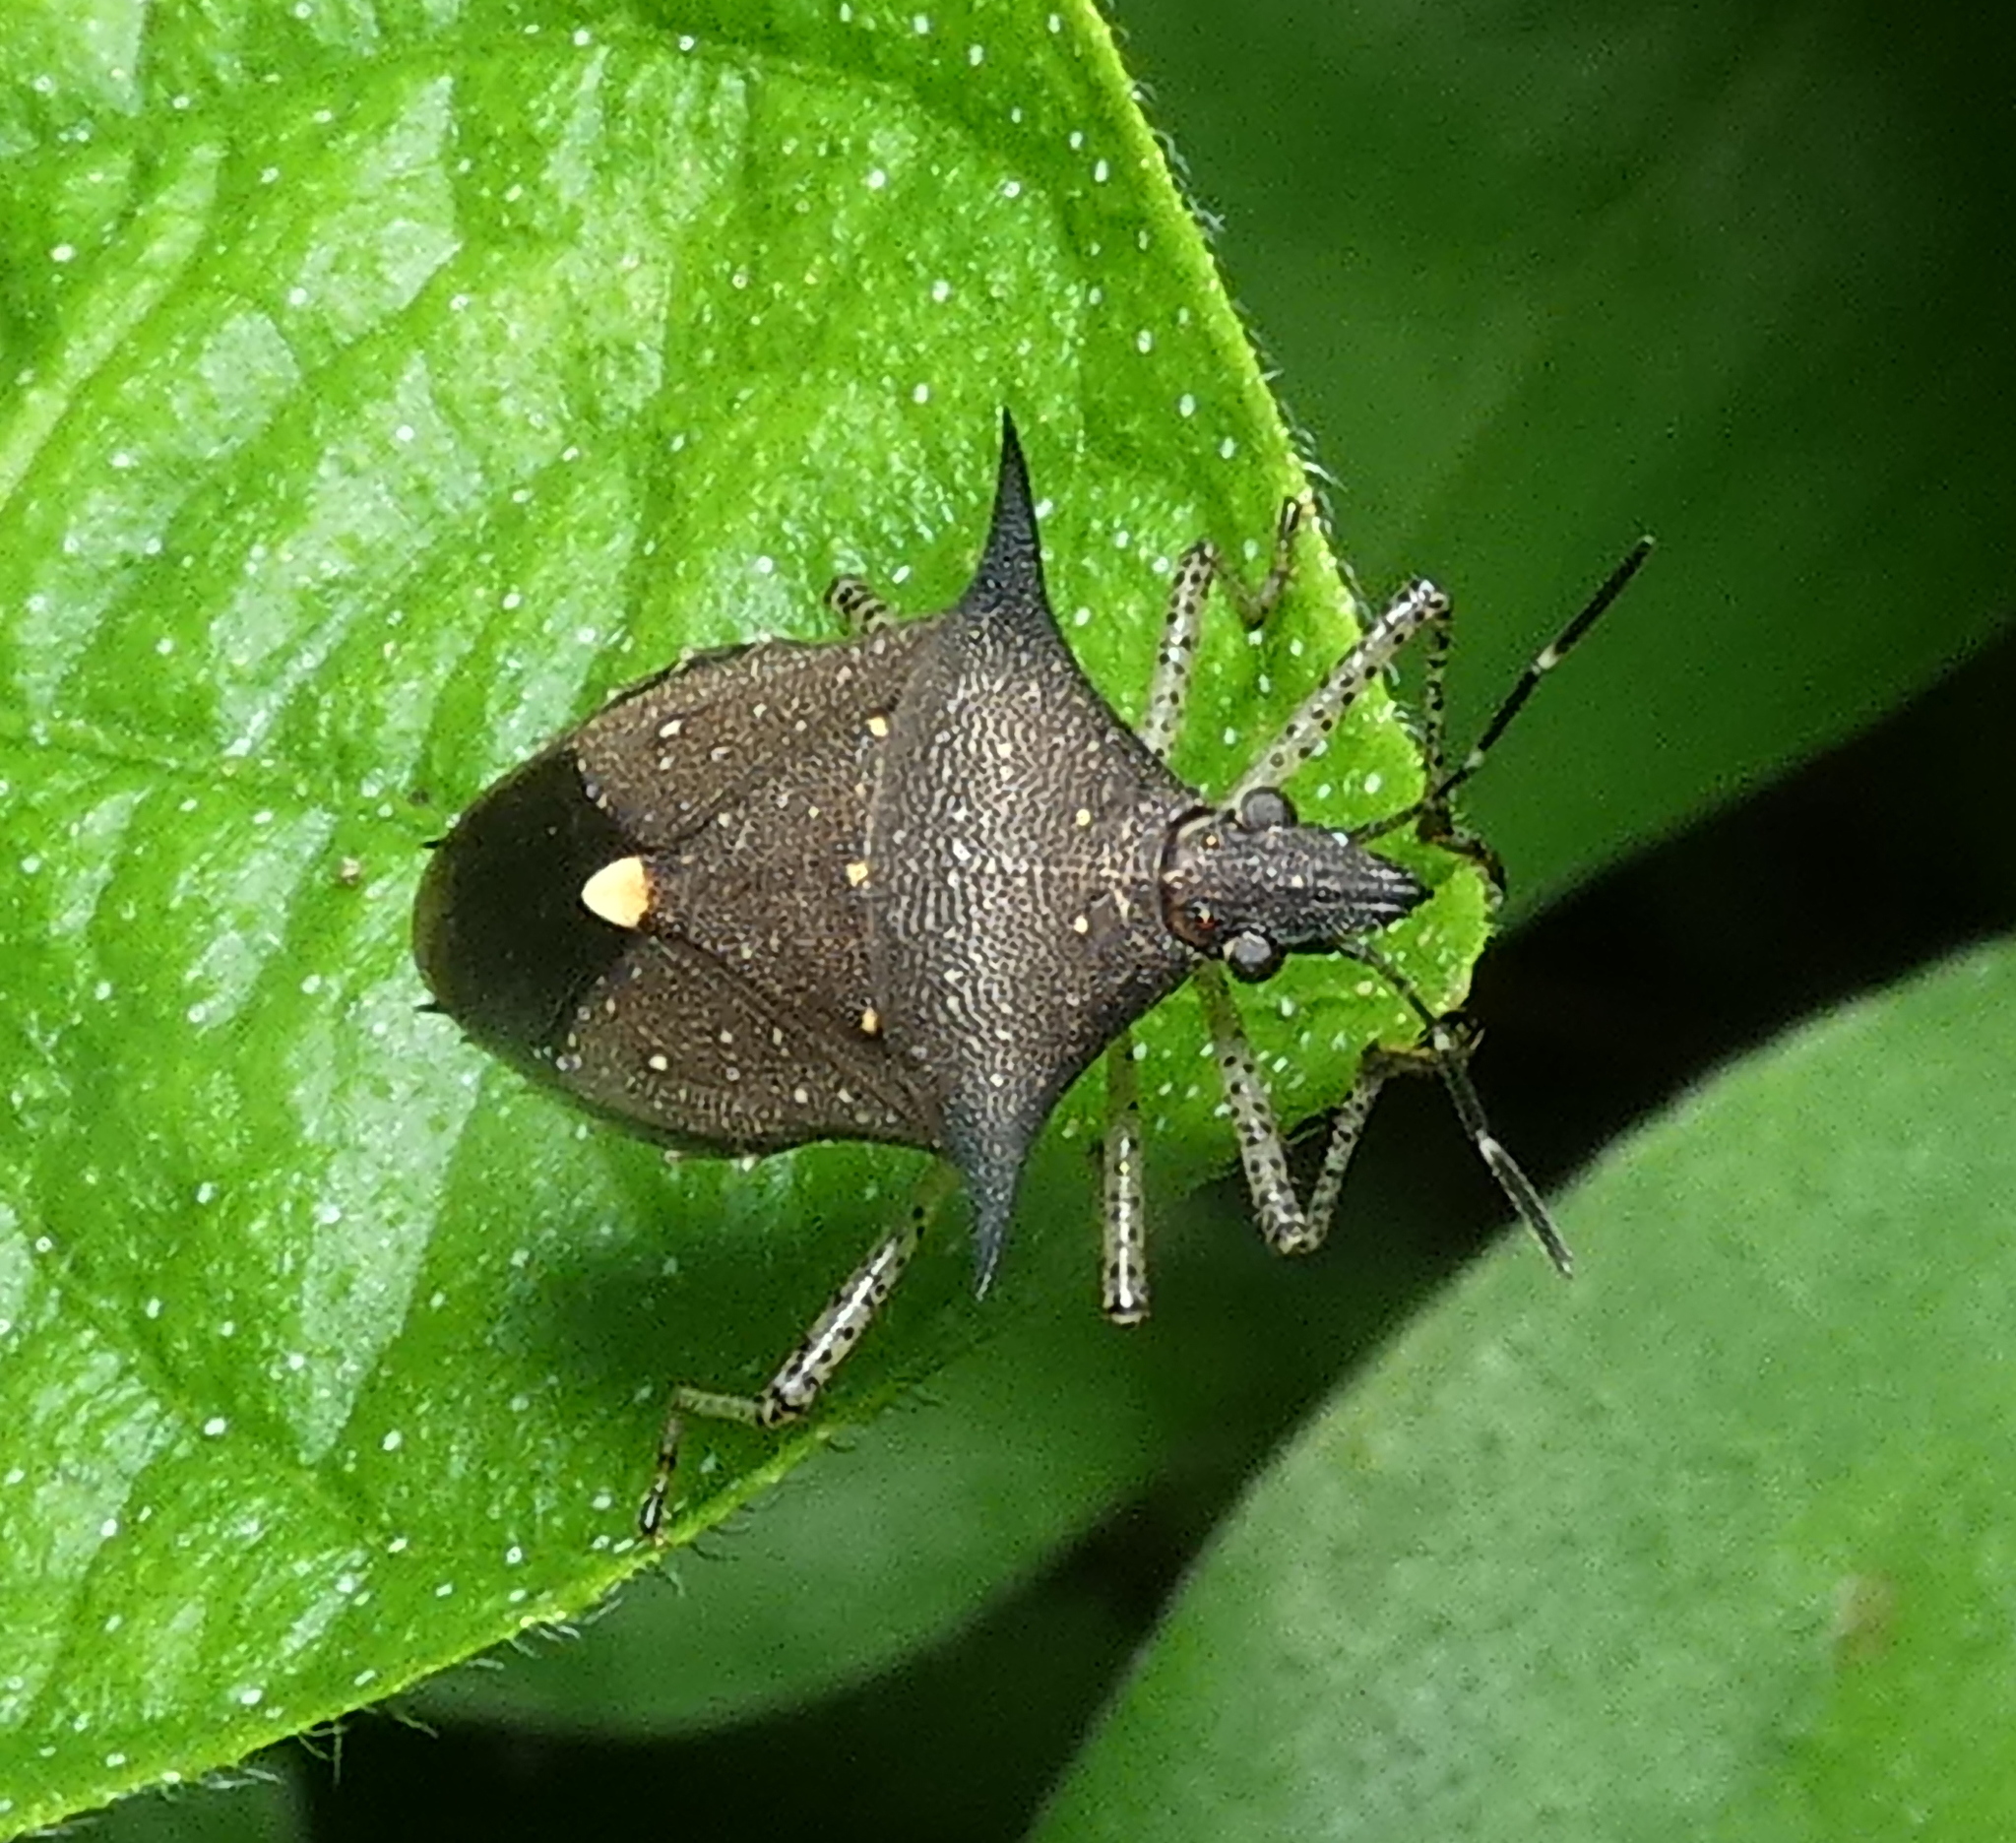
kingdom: Animalia
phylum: Arthropoda
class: Insecta
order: Hemiptera
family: Pentatomidae
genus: Proxys
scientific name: Proxys albopunctulatus
